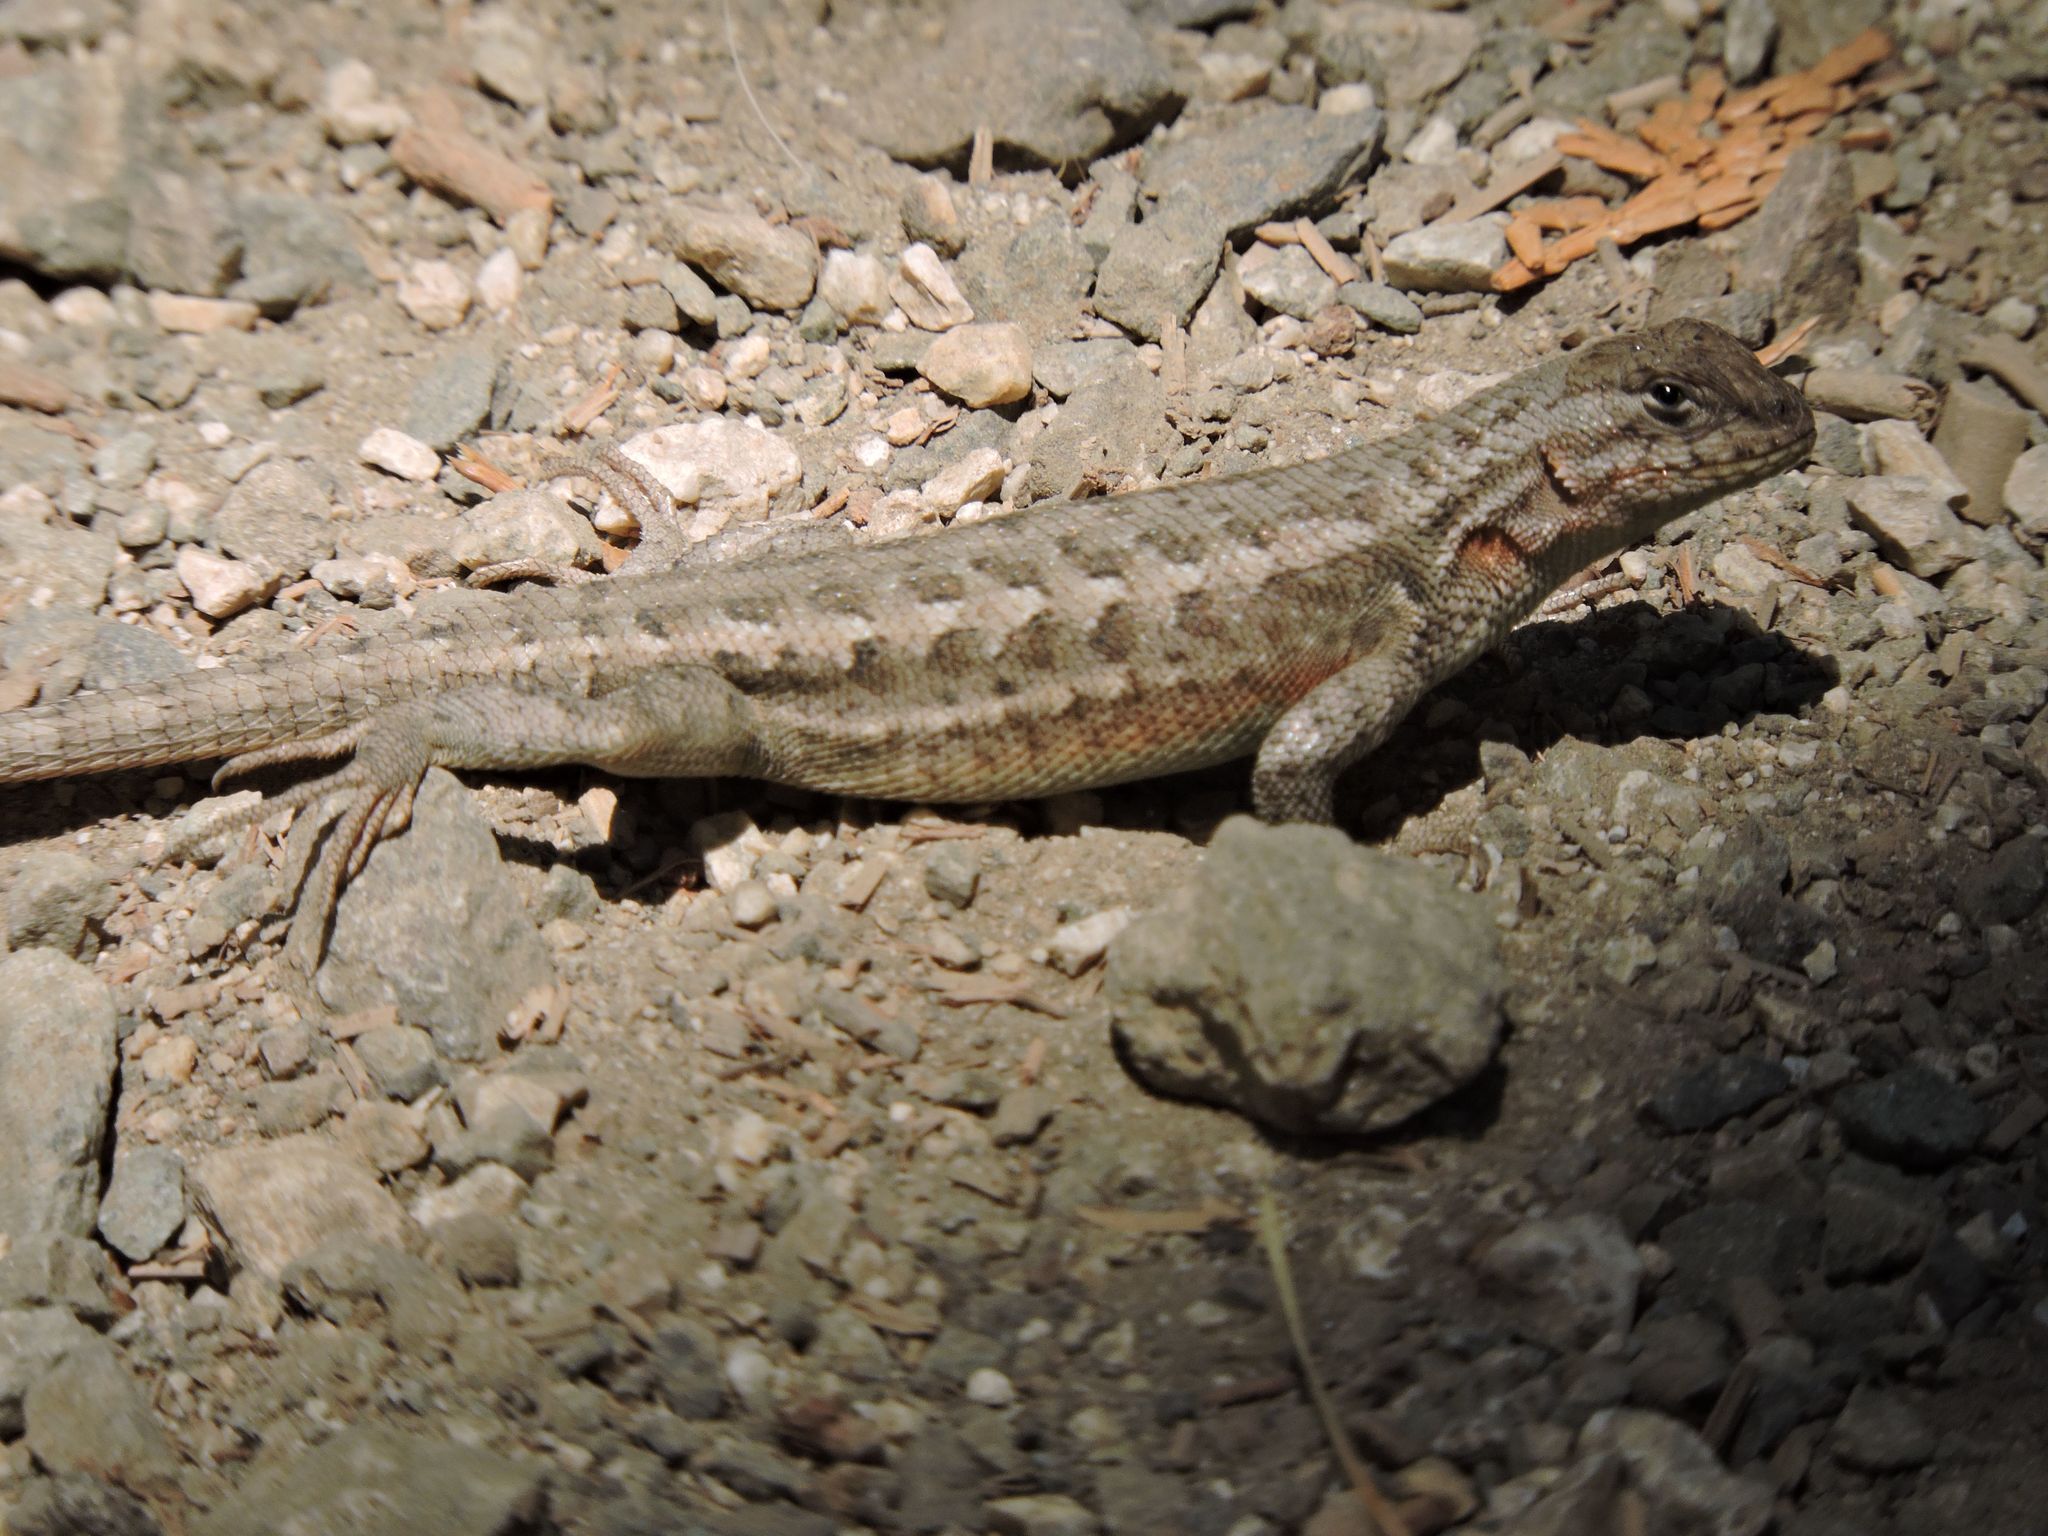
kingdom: Animalia
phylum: Chordata
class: Squamata
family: Phrynosomatidae
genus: Sceloporus
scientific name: Sceloporus graciosus
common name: Sagebrush lizard
